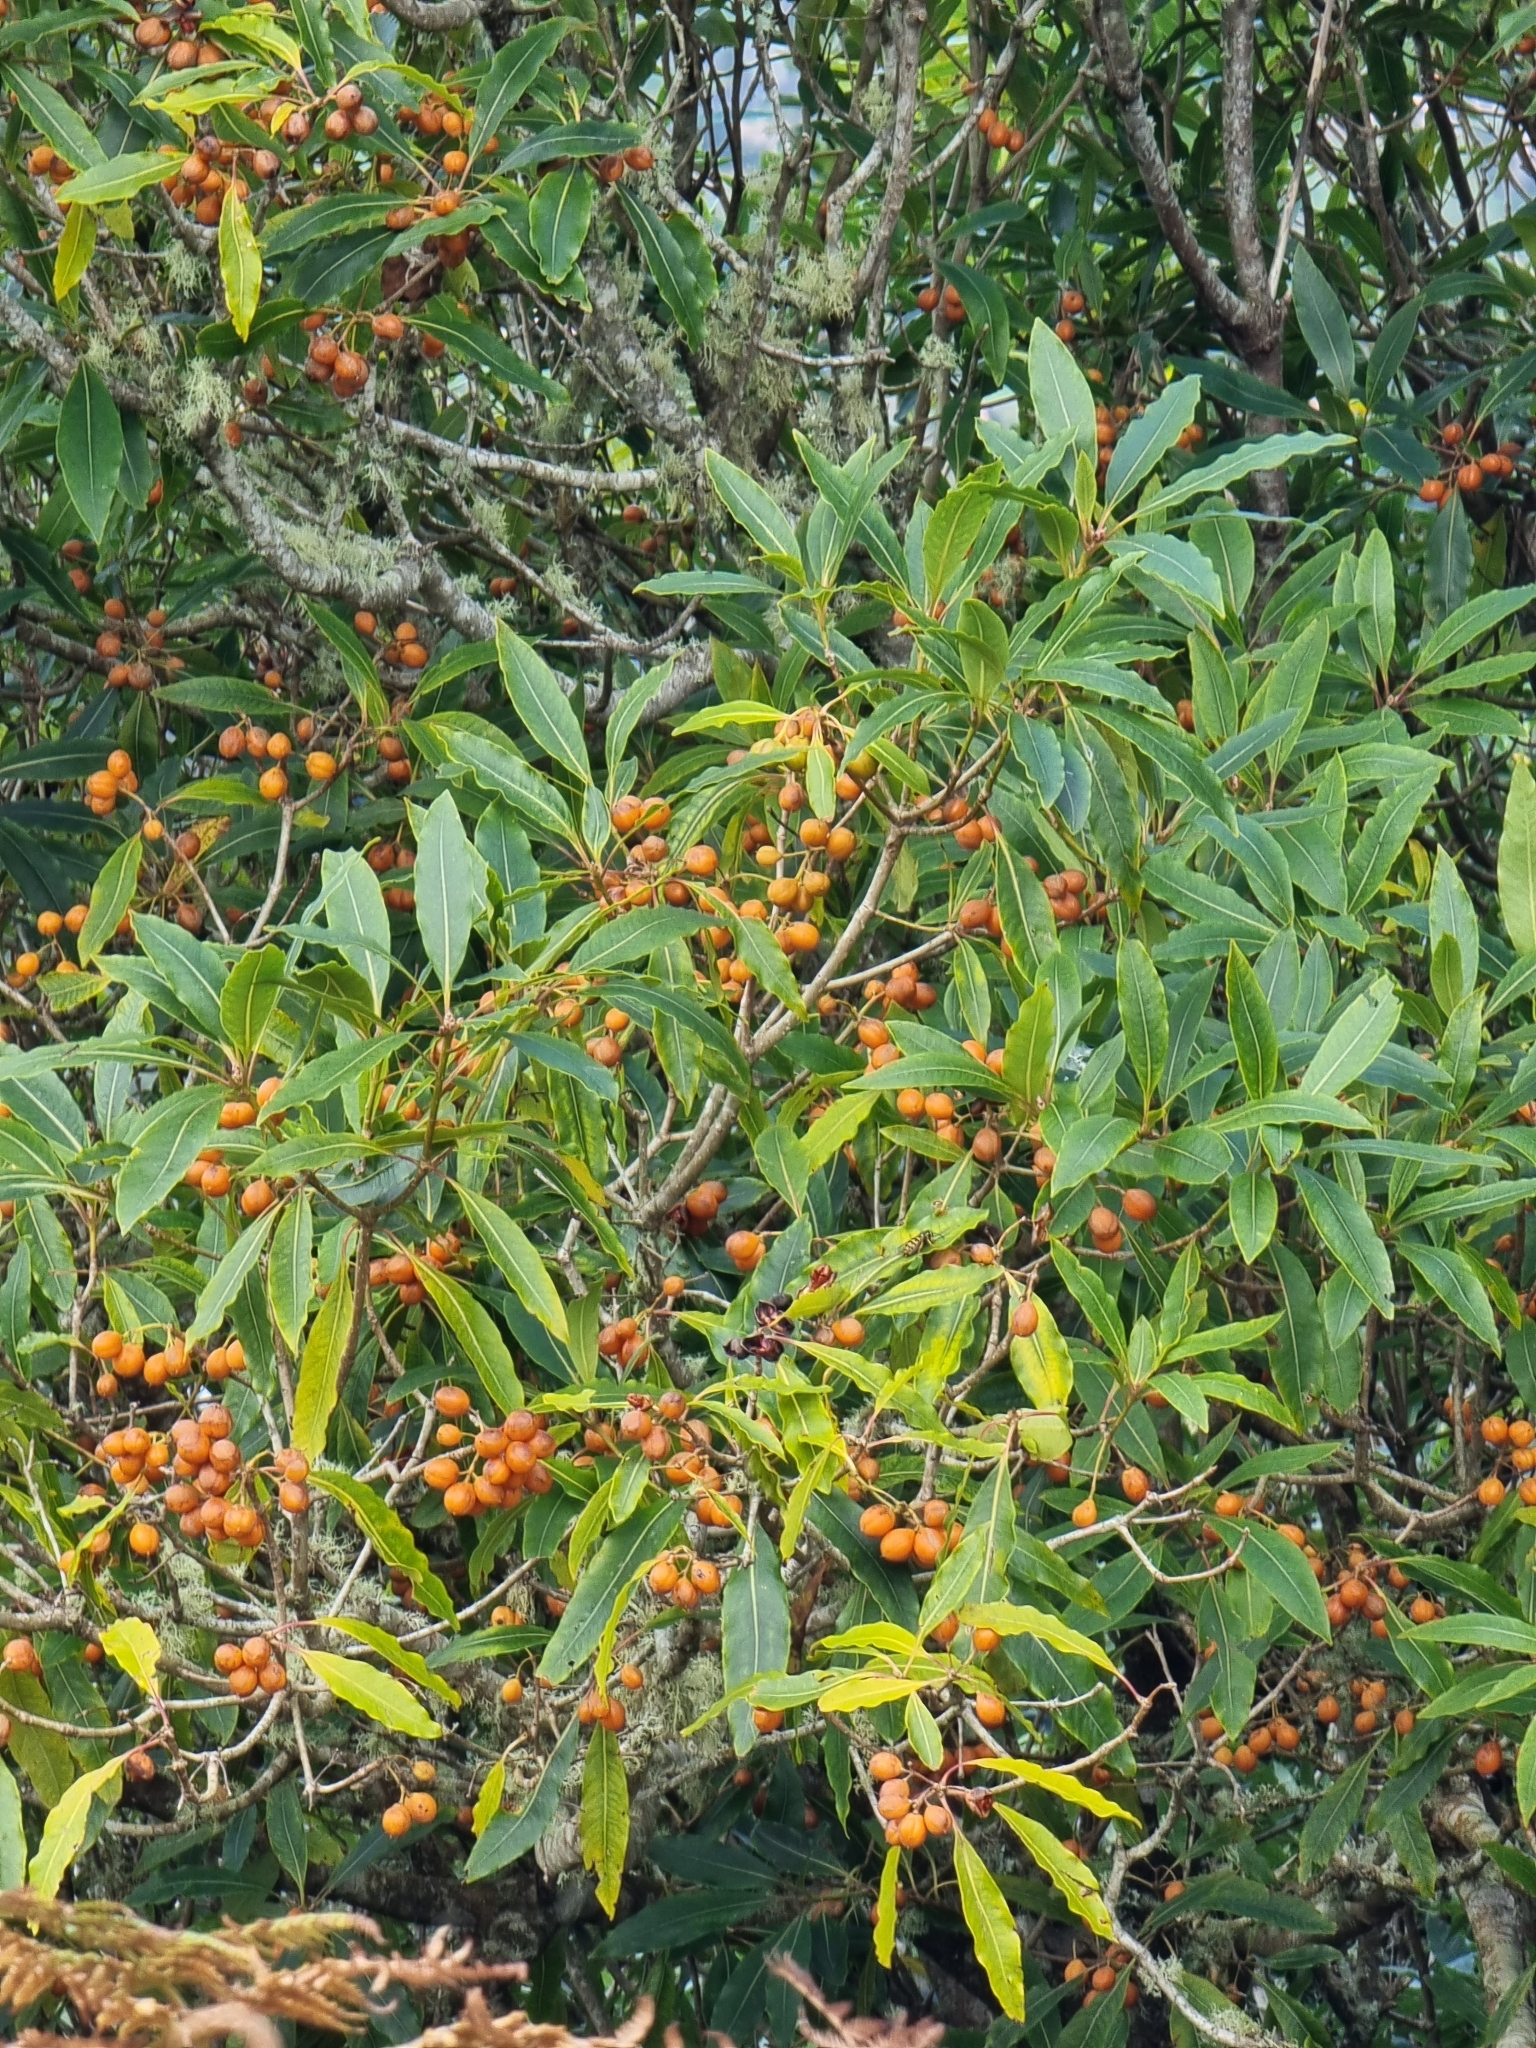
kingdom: Plantae
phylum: Tracheophyta
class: Magnoliopsida
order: Apiales
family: Pittosporaceae
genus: Pittosporum
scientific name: Pittosporum undulatum
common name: Australian cheesewood
